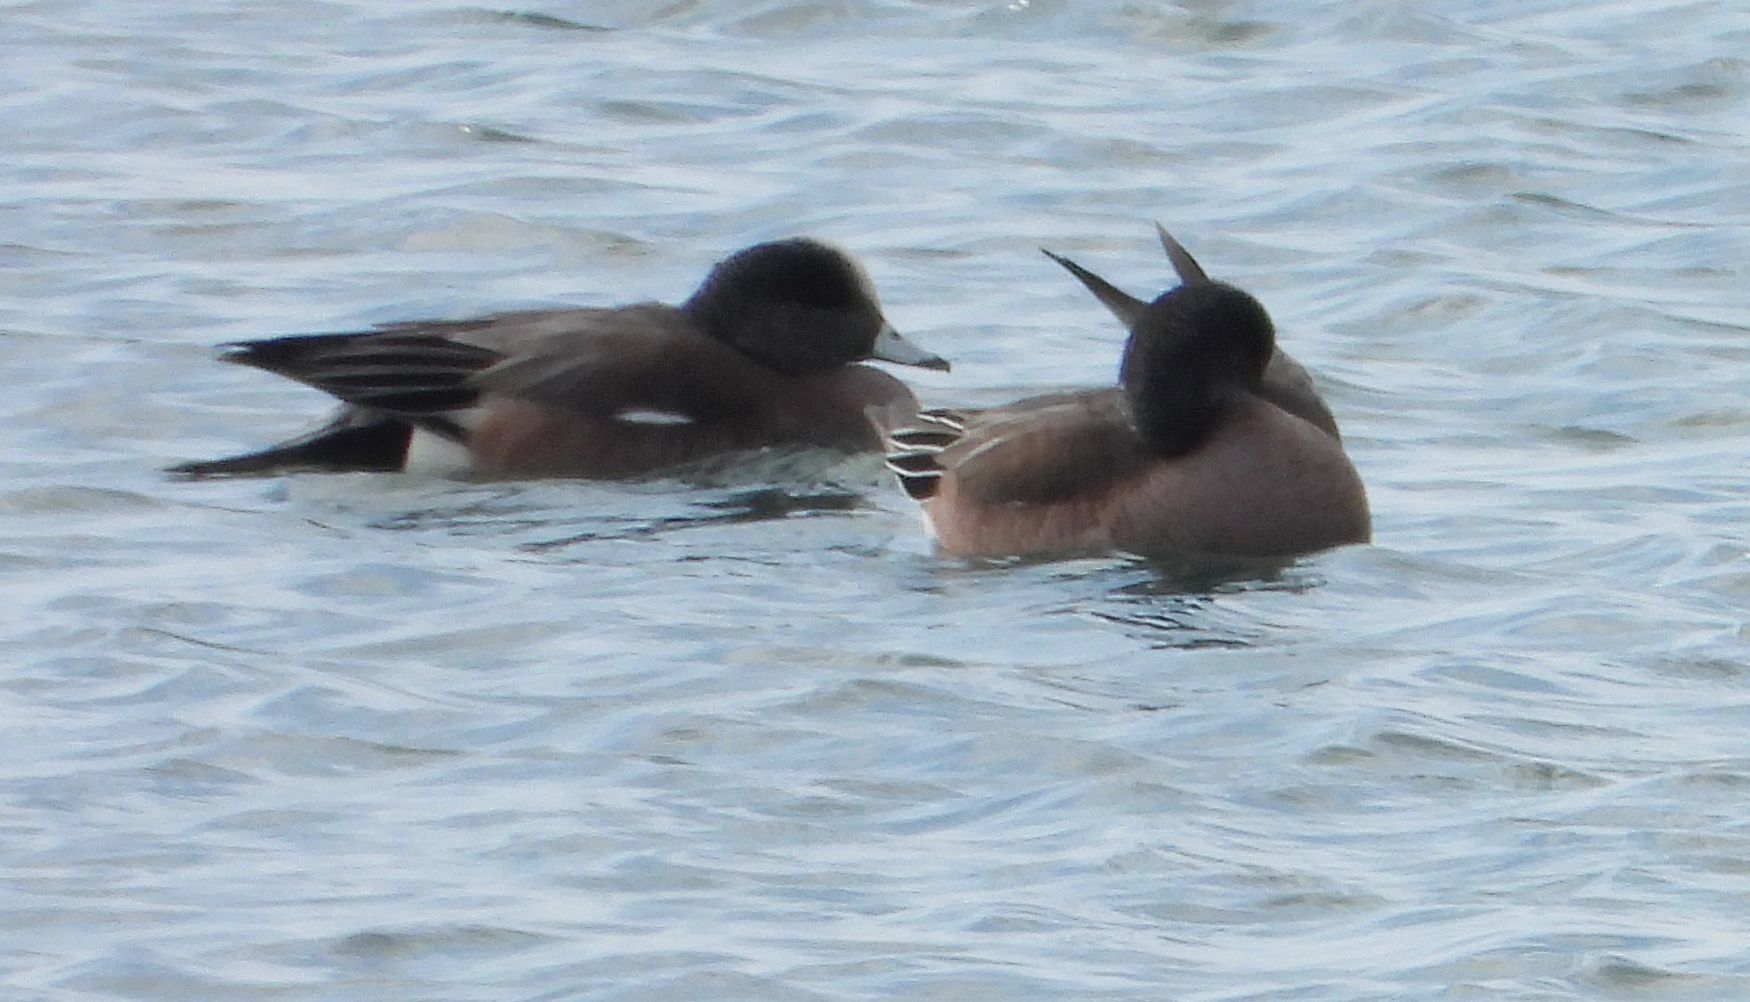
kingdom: Animalia
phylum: Chordata
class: Aves
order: Anseriformes
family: Anatidae
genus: Mareca
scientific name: Mareca americana
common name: American wigeon
